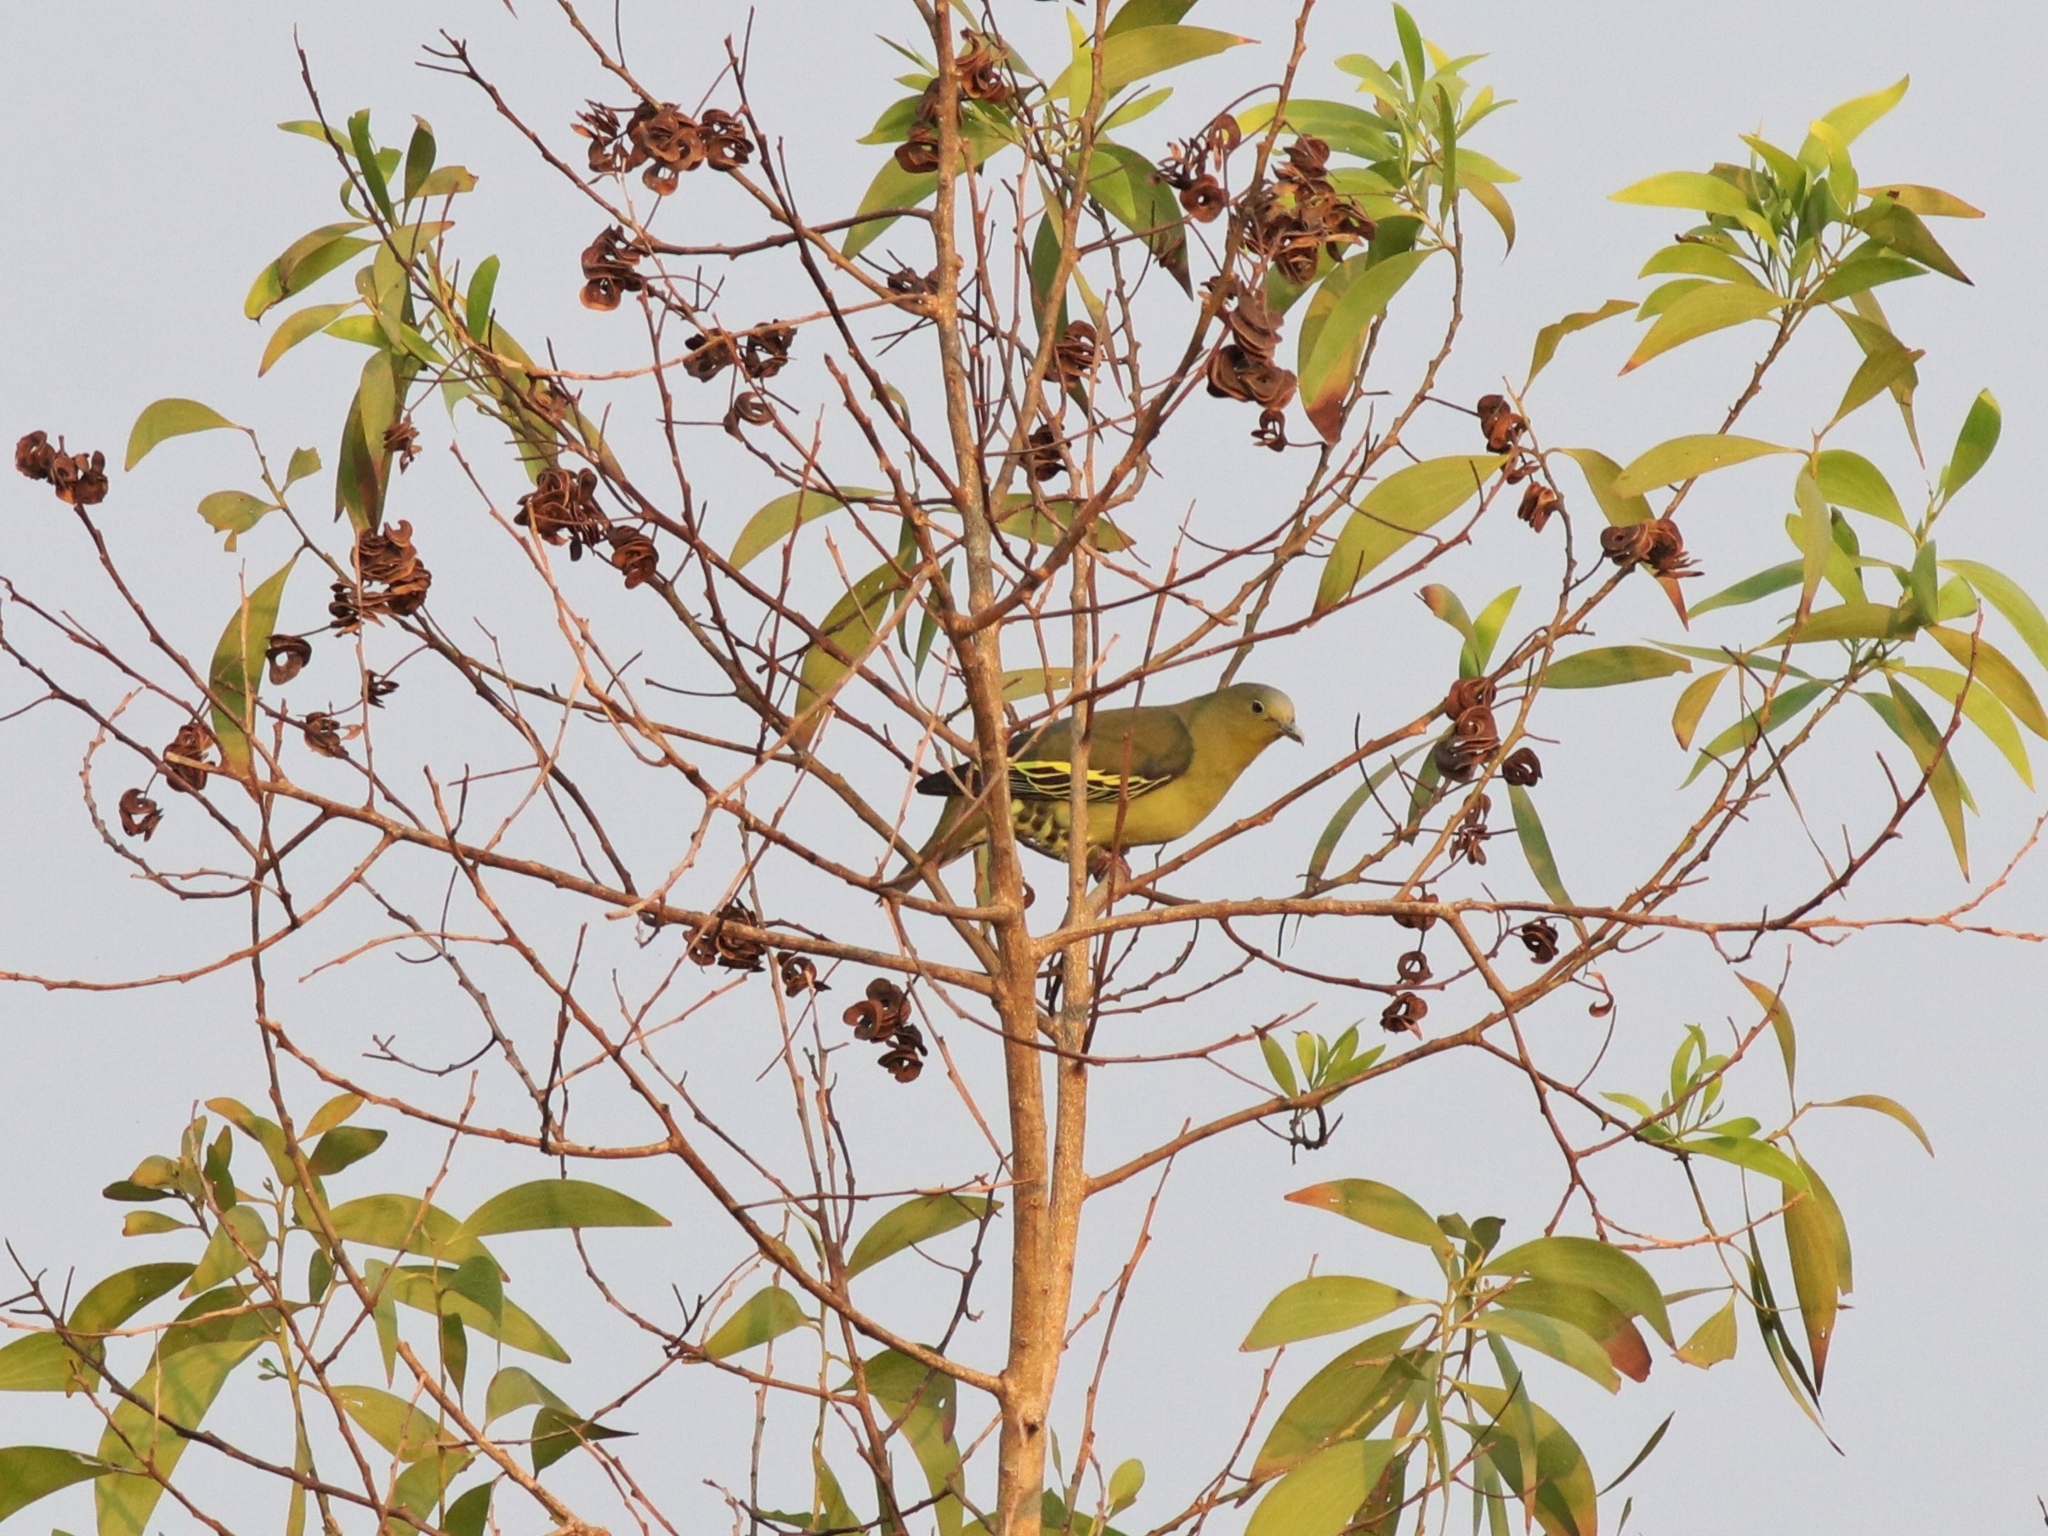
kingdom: Animalia
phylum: Chordata
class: Aves
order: Columbiformes
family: Columbidae
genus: Treron
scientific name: Treron affinis
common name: Grey-fronted green pigeon
